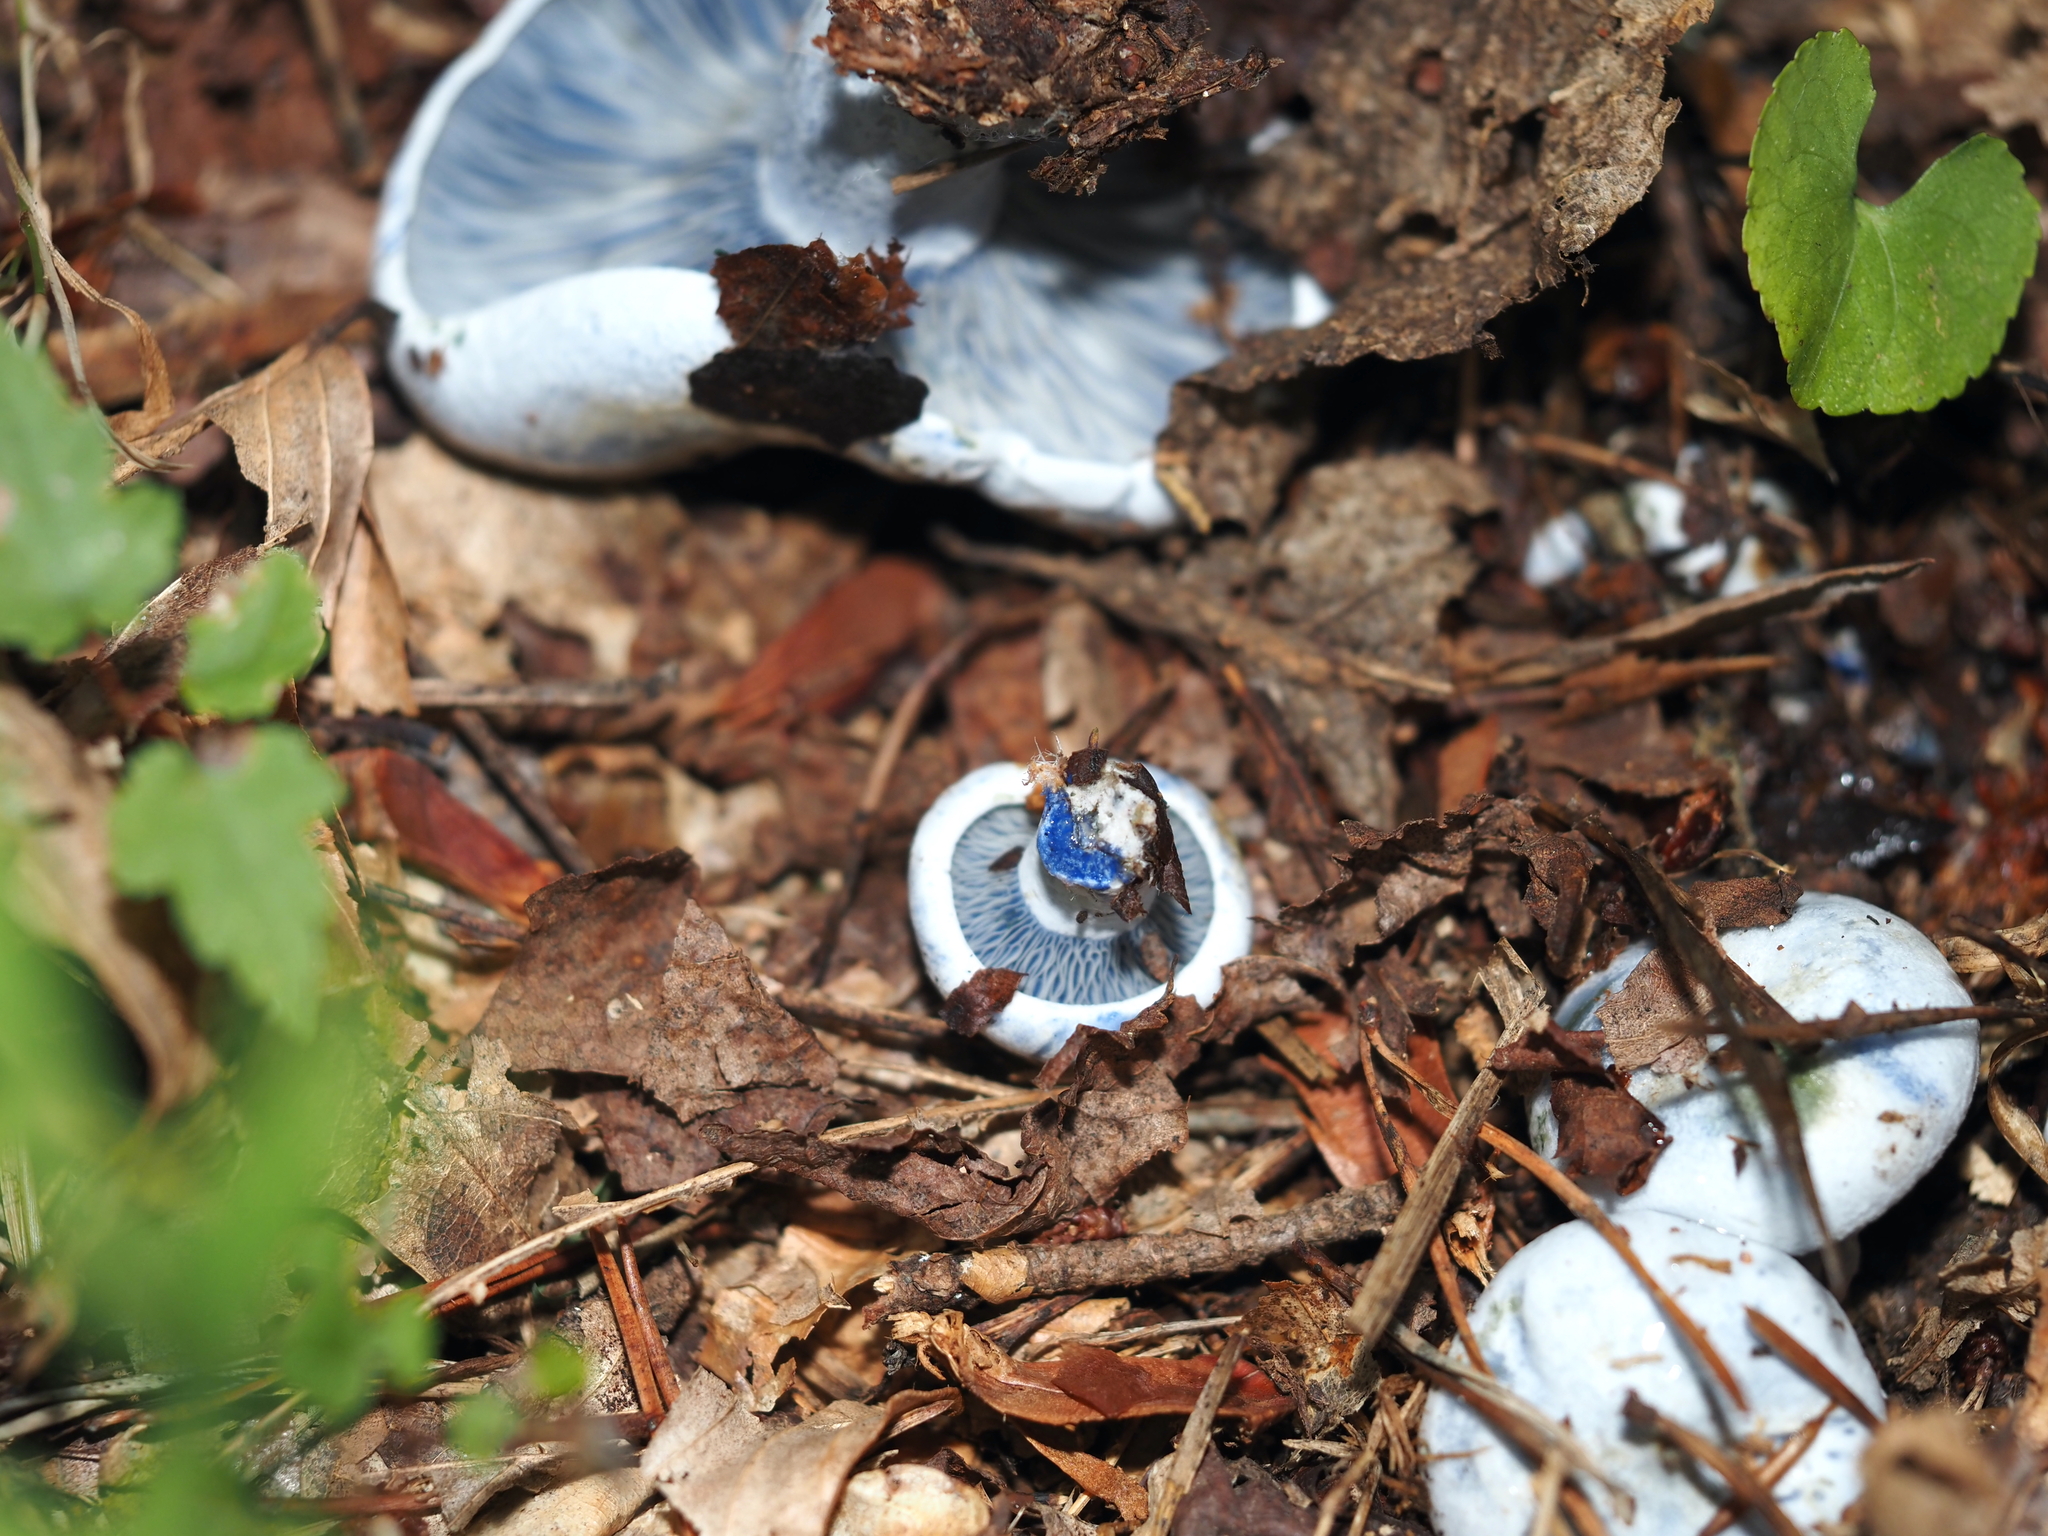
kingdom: Fungi
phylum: Basidiomycota
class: Agaricomycetes
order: Russulales
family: Russulaceae
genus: Lactarius
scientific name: Lactarius indigo
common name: Indigo milk cap
